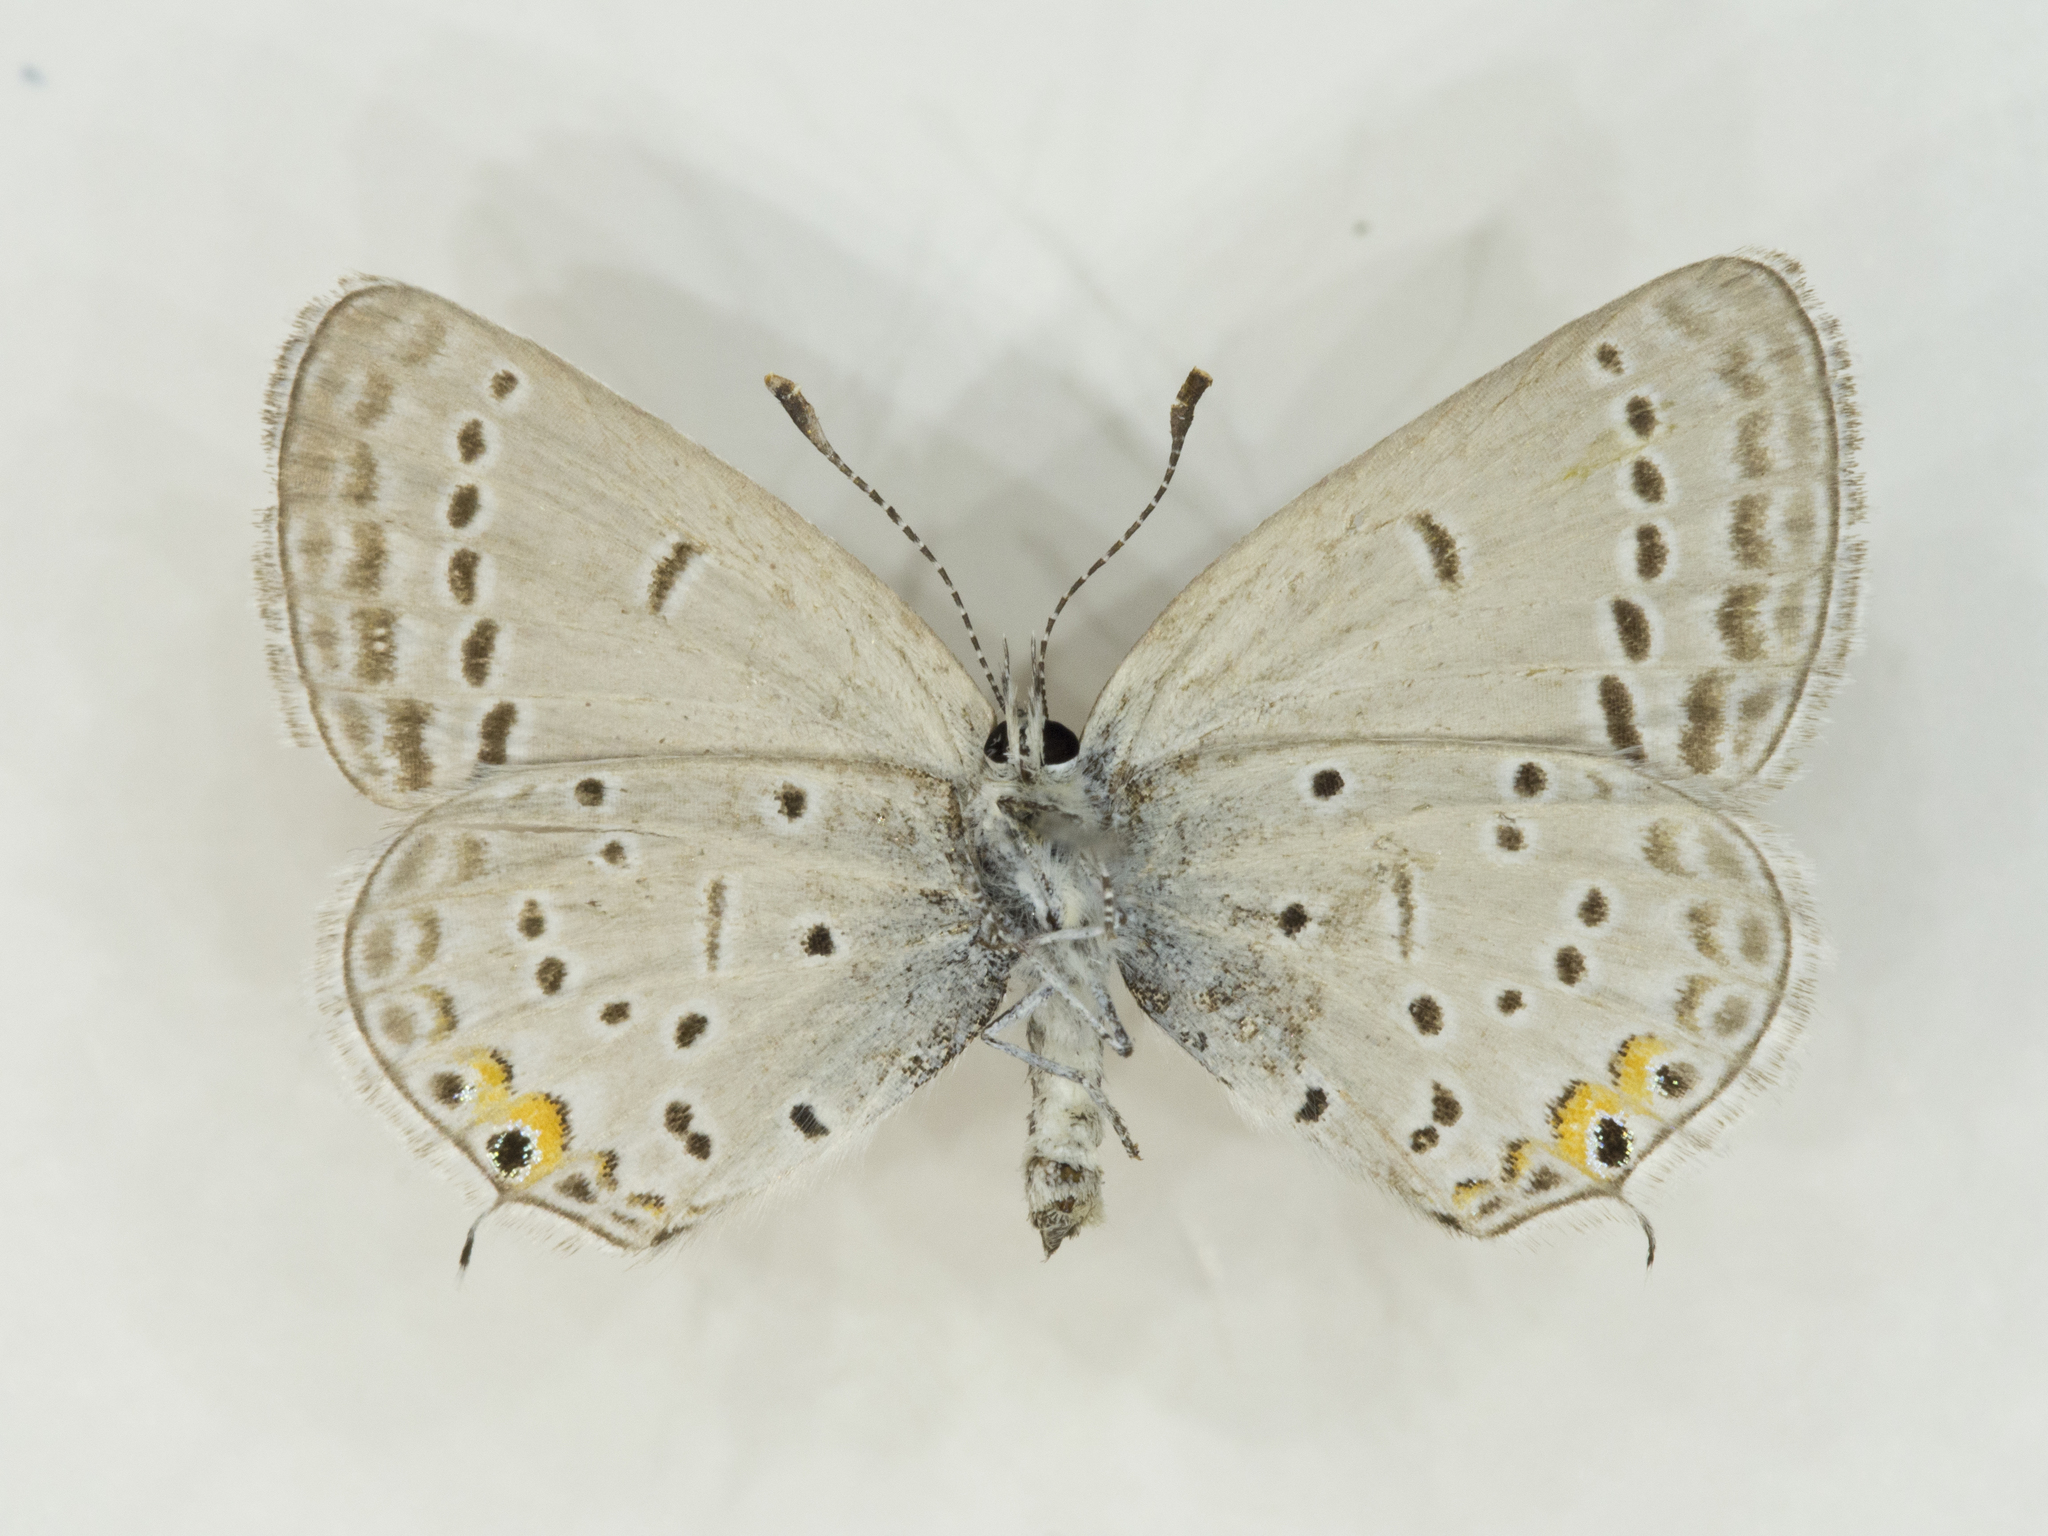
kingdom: Animalia
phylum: Arthropoda
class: Insecta
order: Lepidoptera
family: Lycaenidae
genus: Elkalyce
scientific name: Elkalyce amyntula
